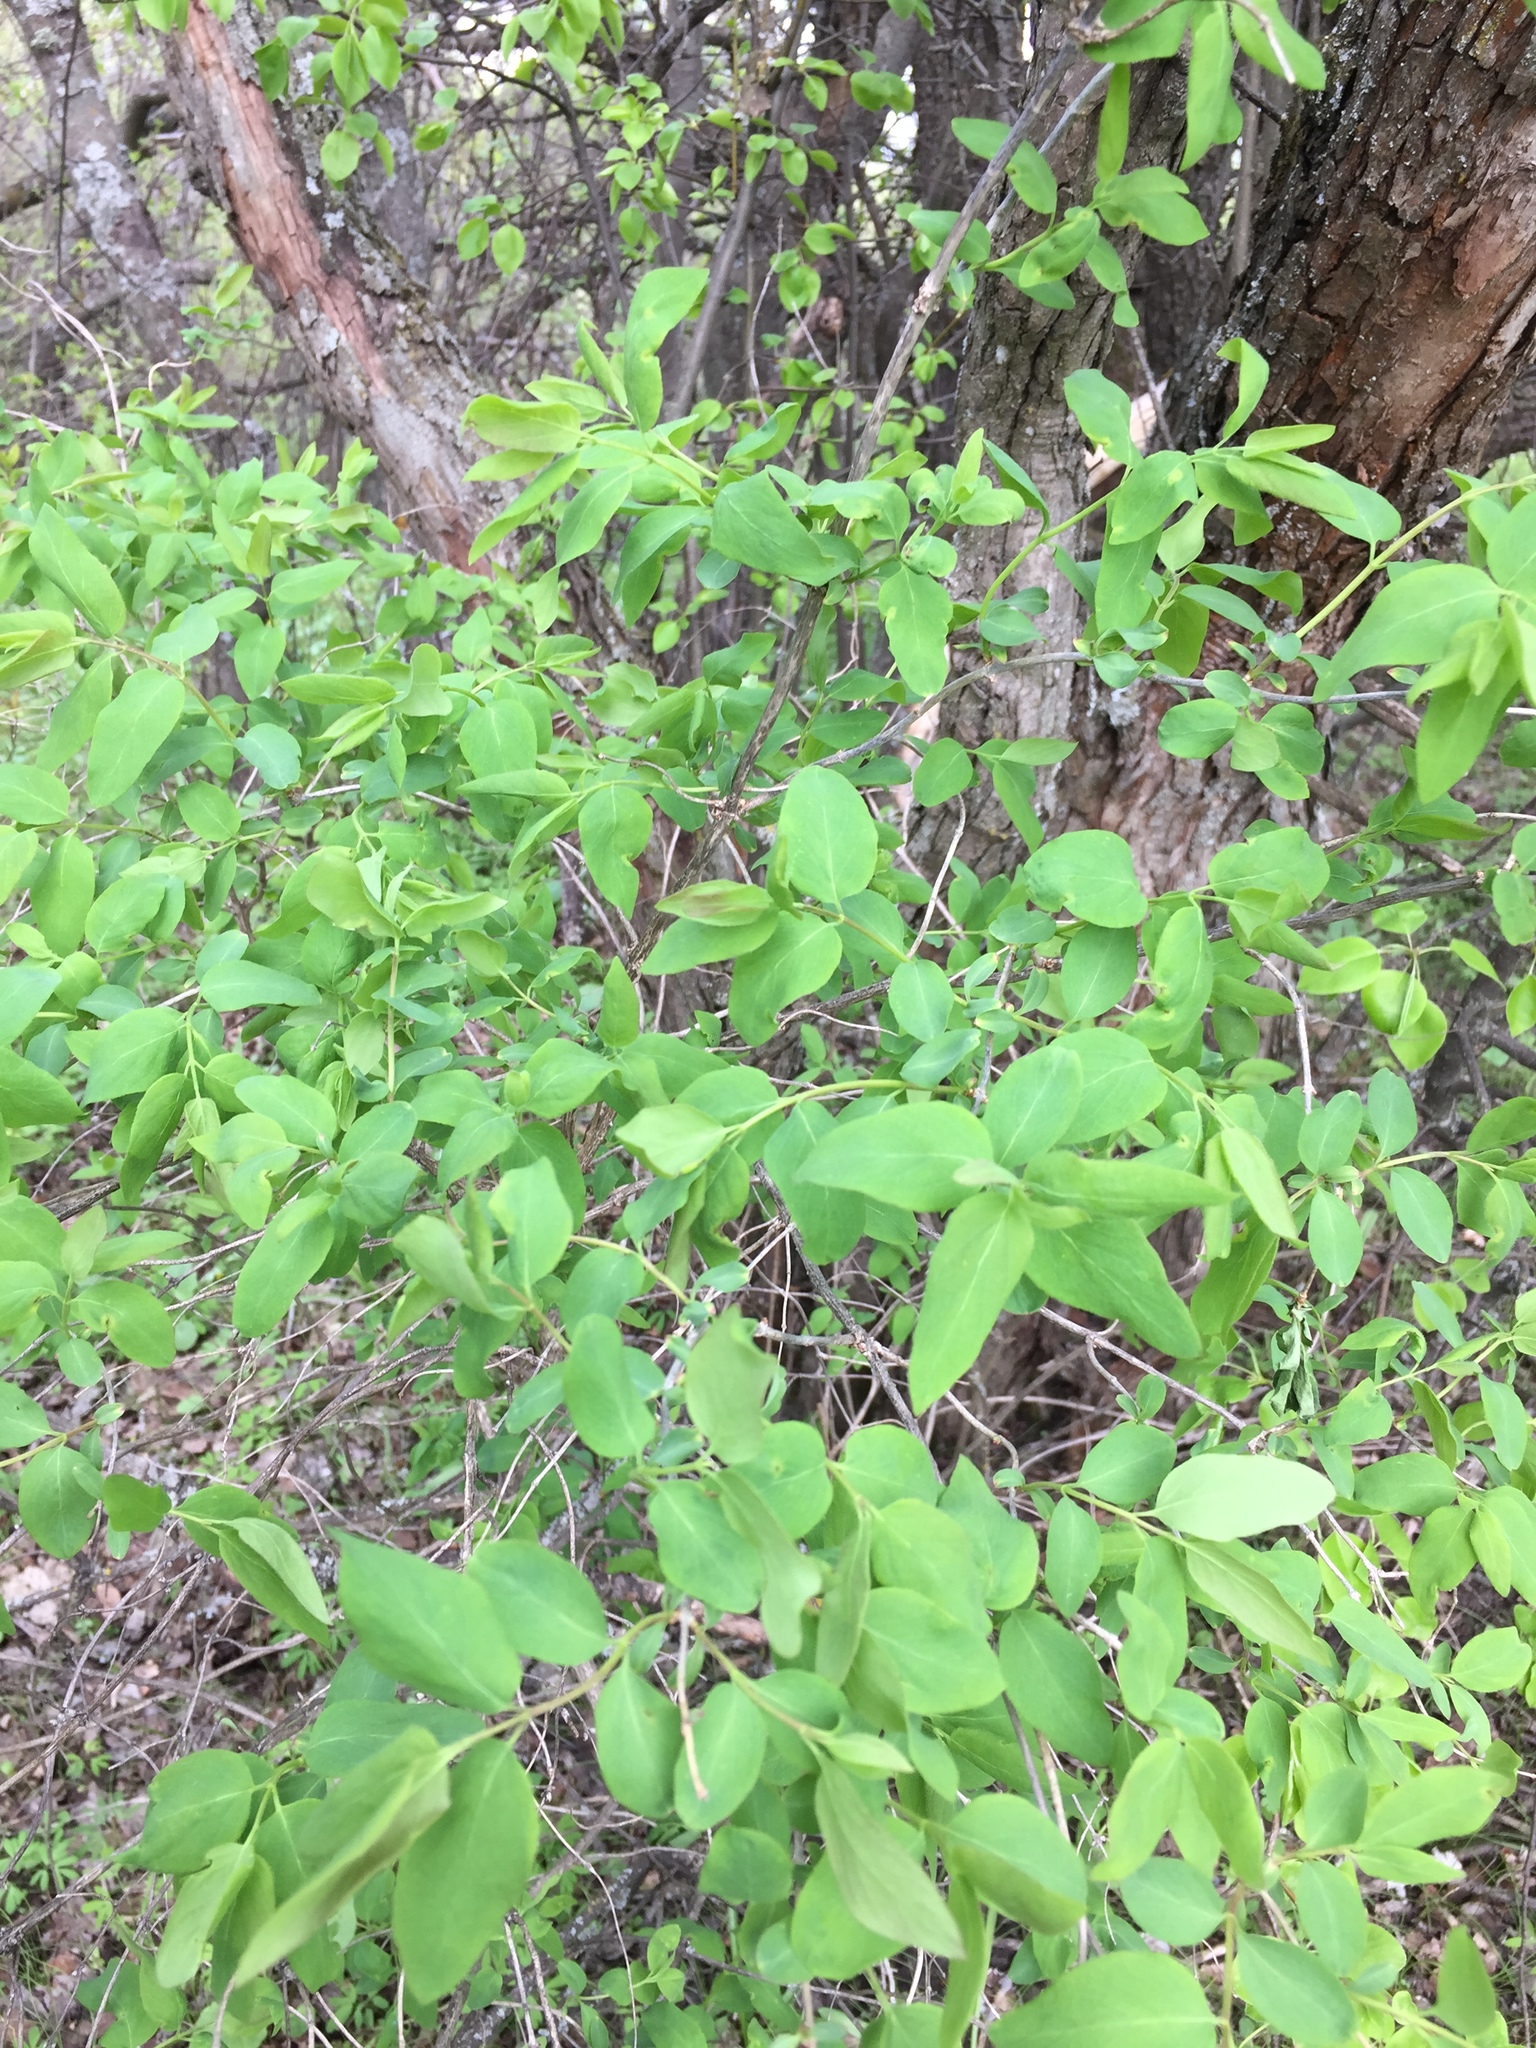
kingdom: Plantae
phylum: Tracheophyta
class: Magnoliopsida
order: Dipsacales
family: Caprifoliaceae
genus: Lonicera
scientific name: Lonicera tatarica
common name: Tatarian honeysuckle
